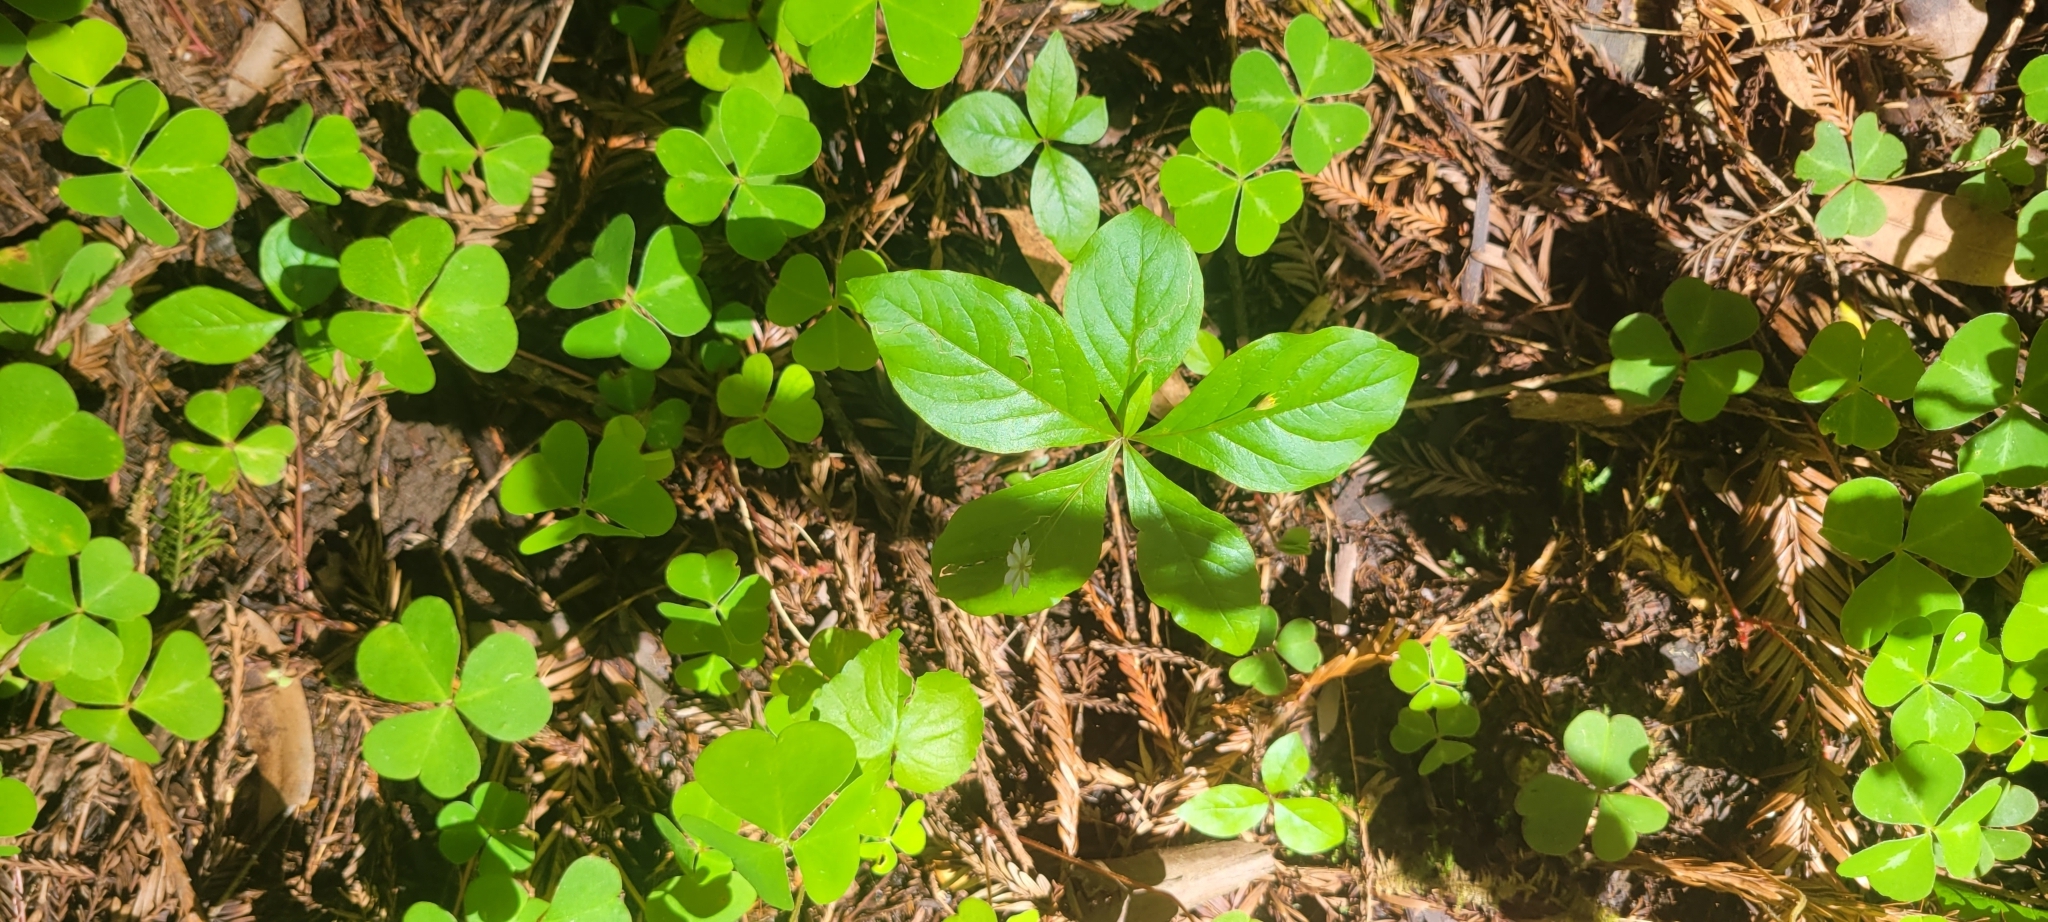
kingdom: Plantae
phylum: Tracheophyta
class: Magnoliopsida
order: Ericales
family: Primulaceae
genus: Lysimachia
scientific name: Lysimachia latifolia
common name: Pacific starflower
